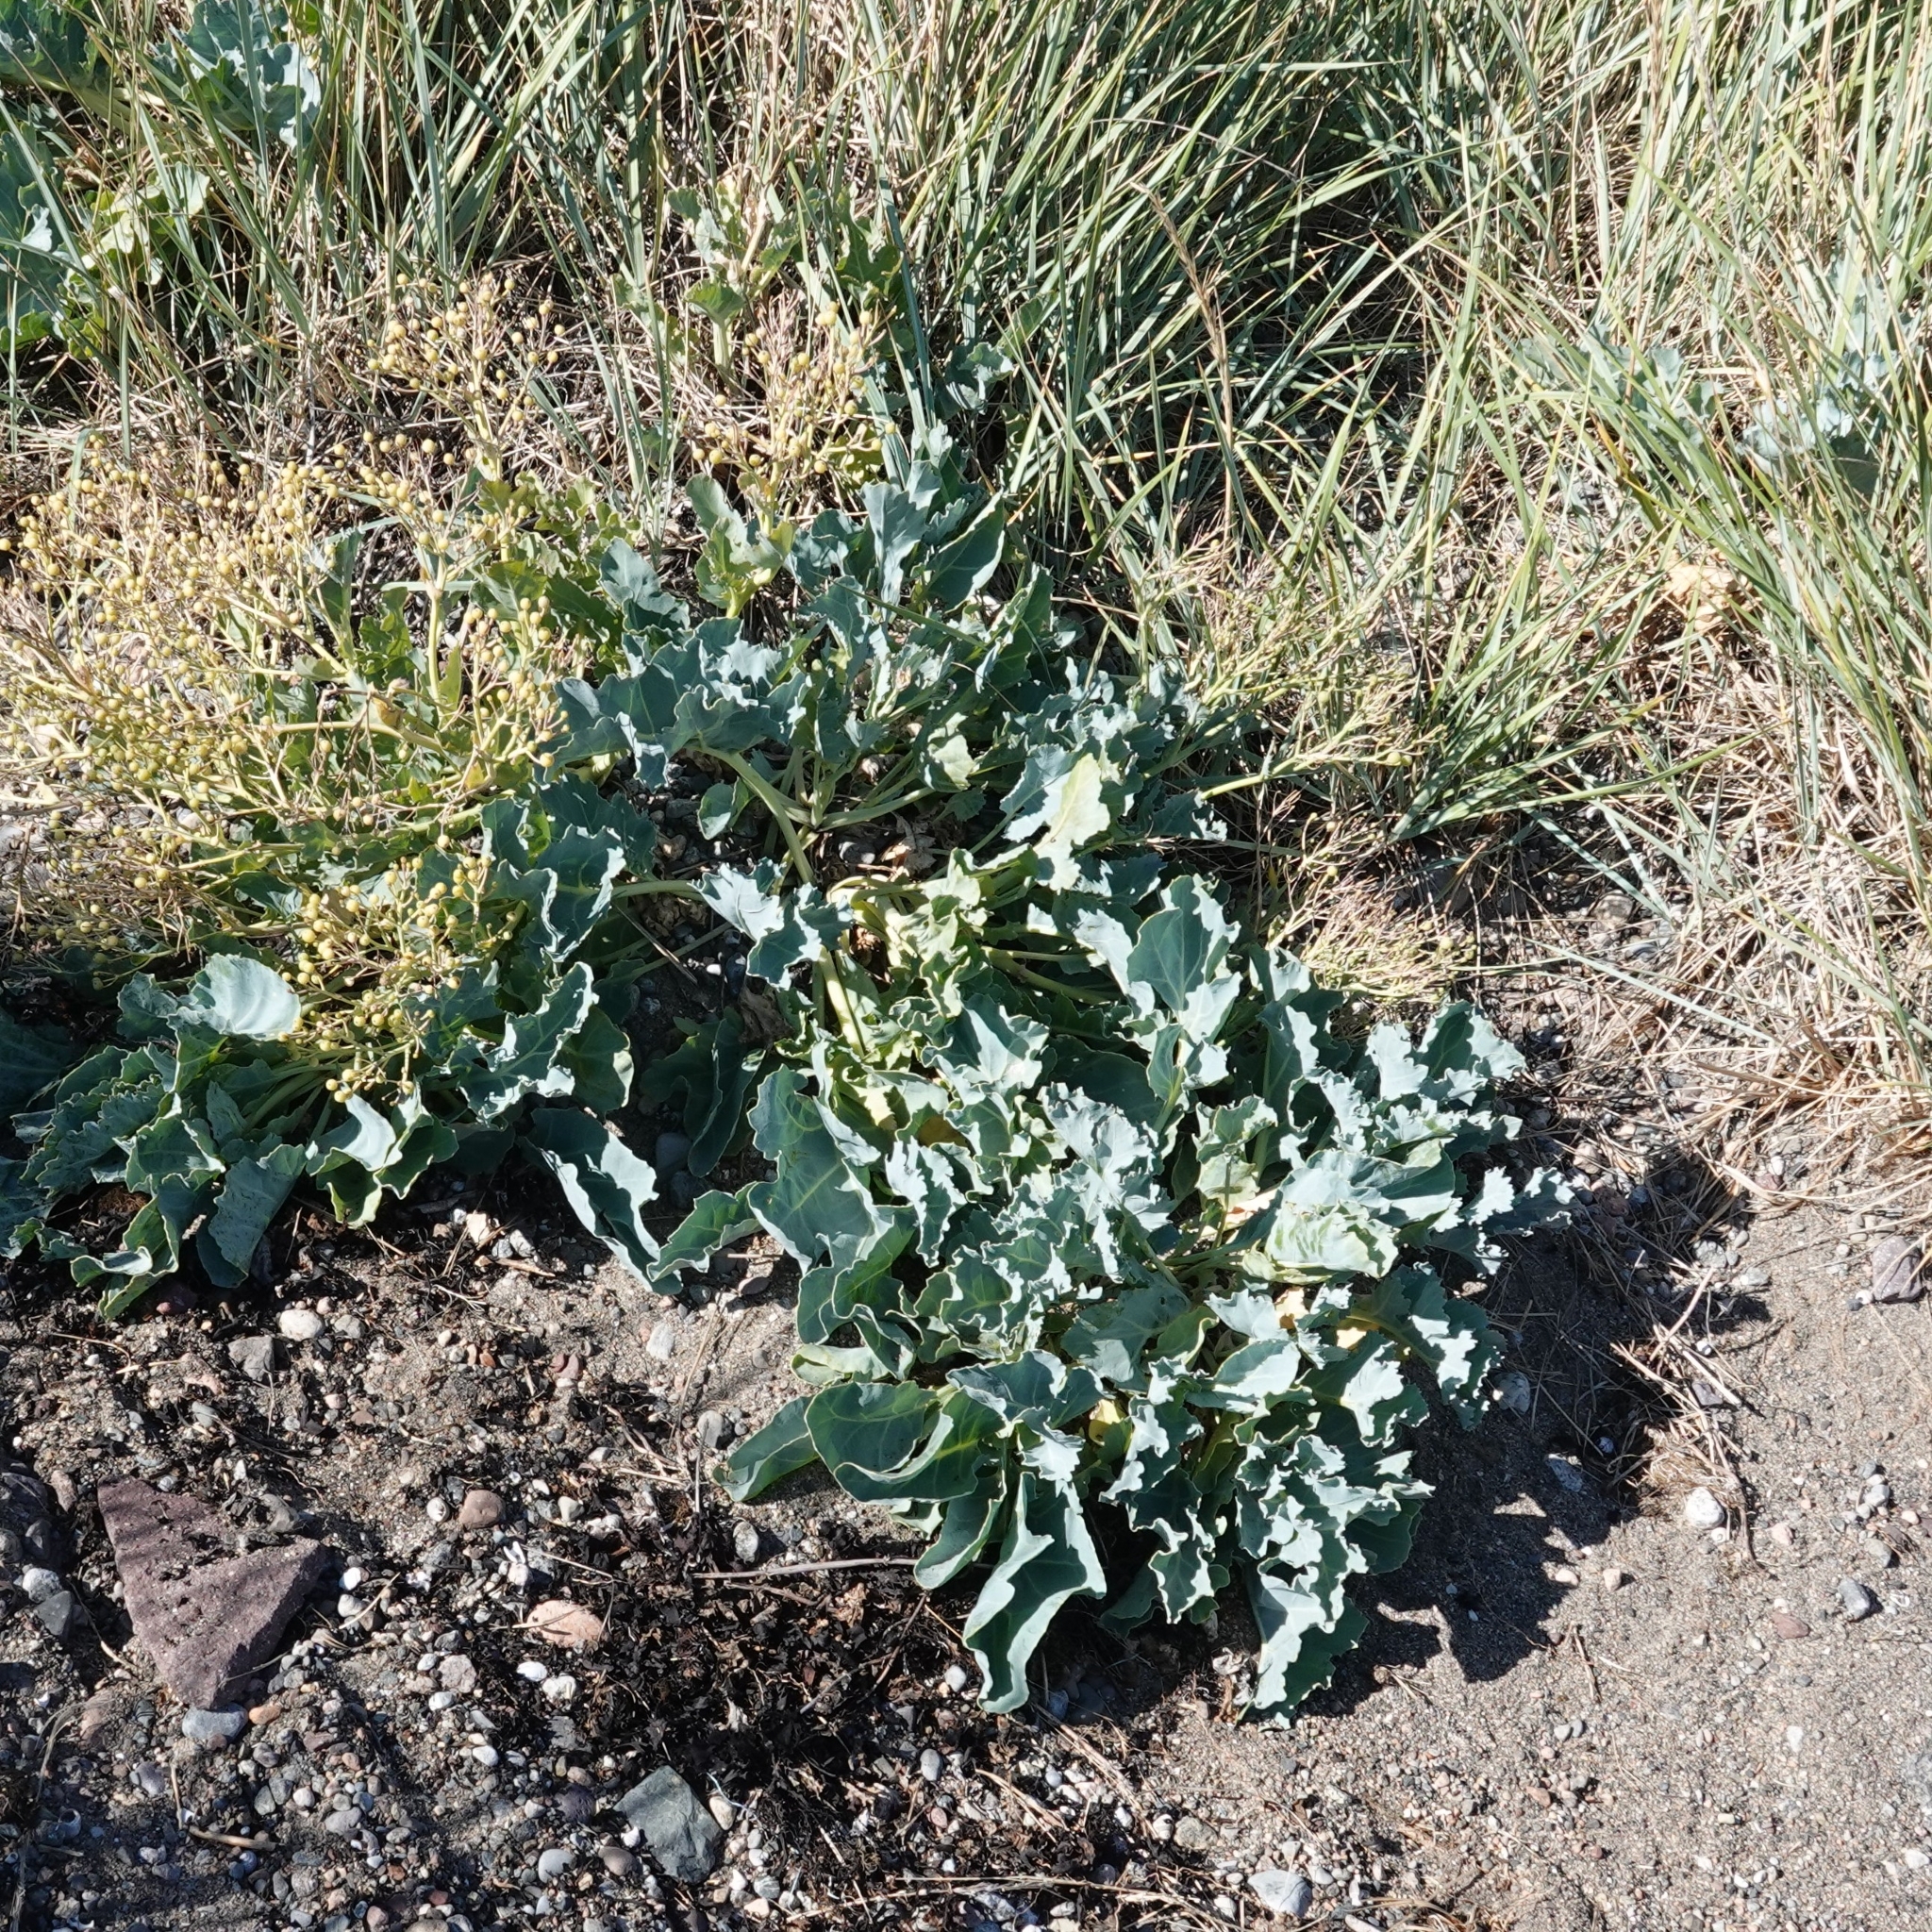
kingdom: Plantae
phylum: Tracheophyta
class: Magnoliopsida
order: Brassicales
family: Brassicaceae
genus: Crambe
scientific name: Crambe maritima
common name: Sea-kale
